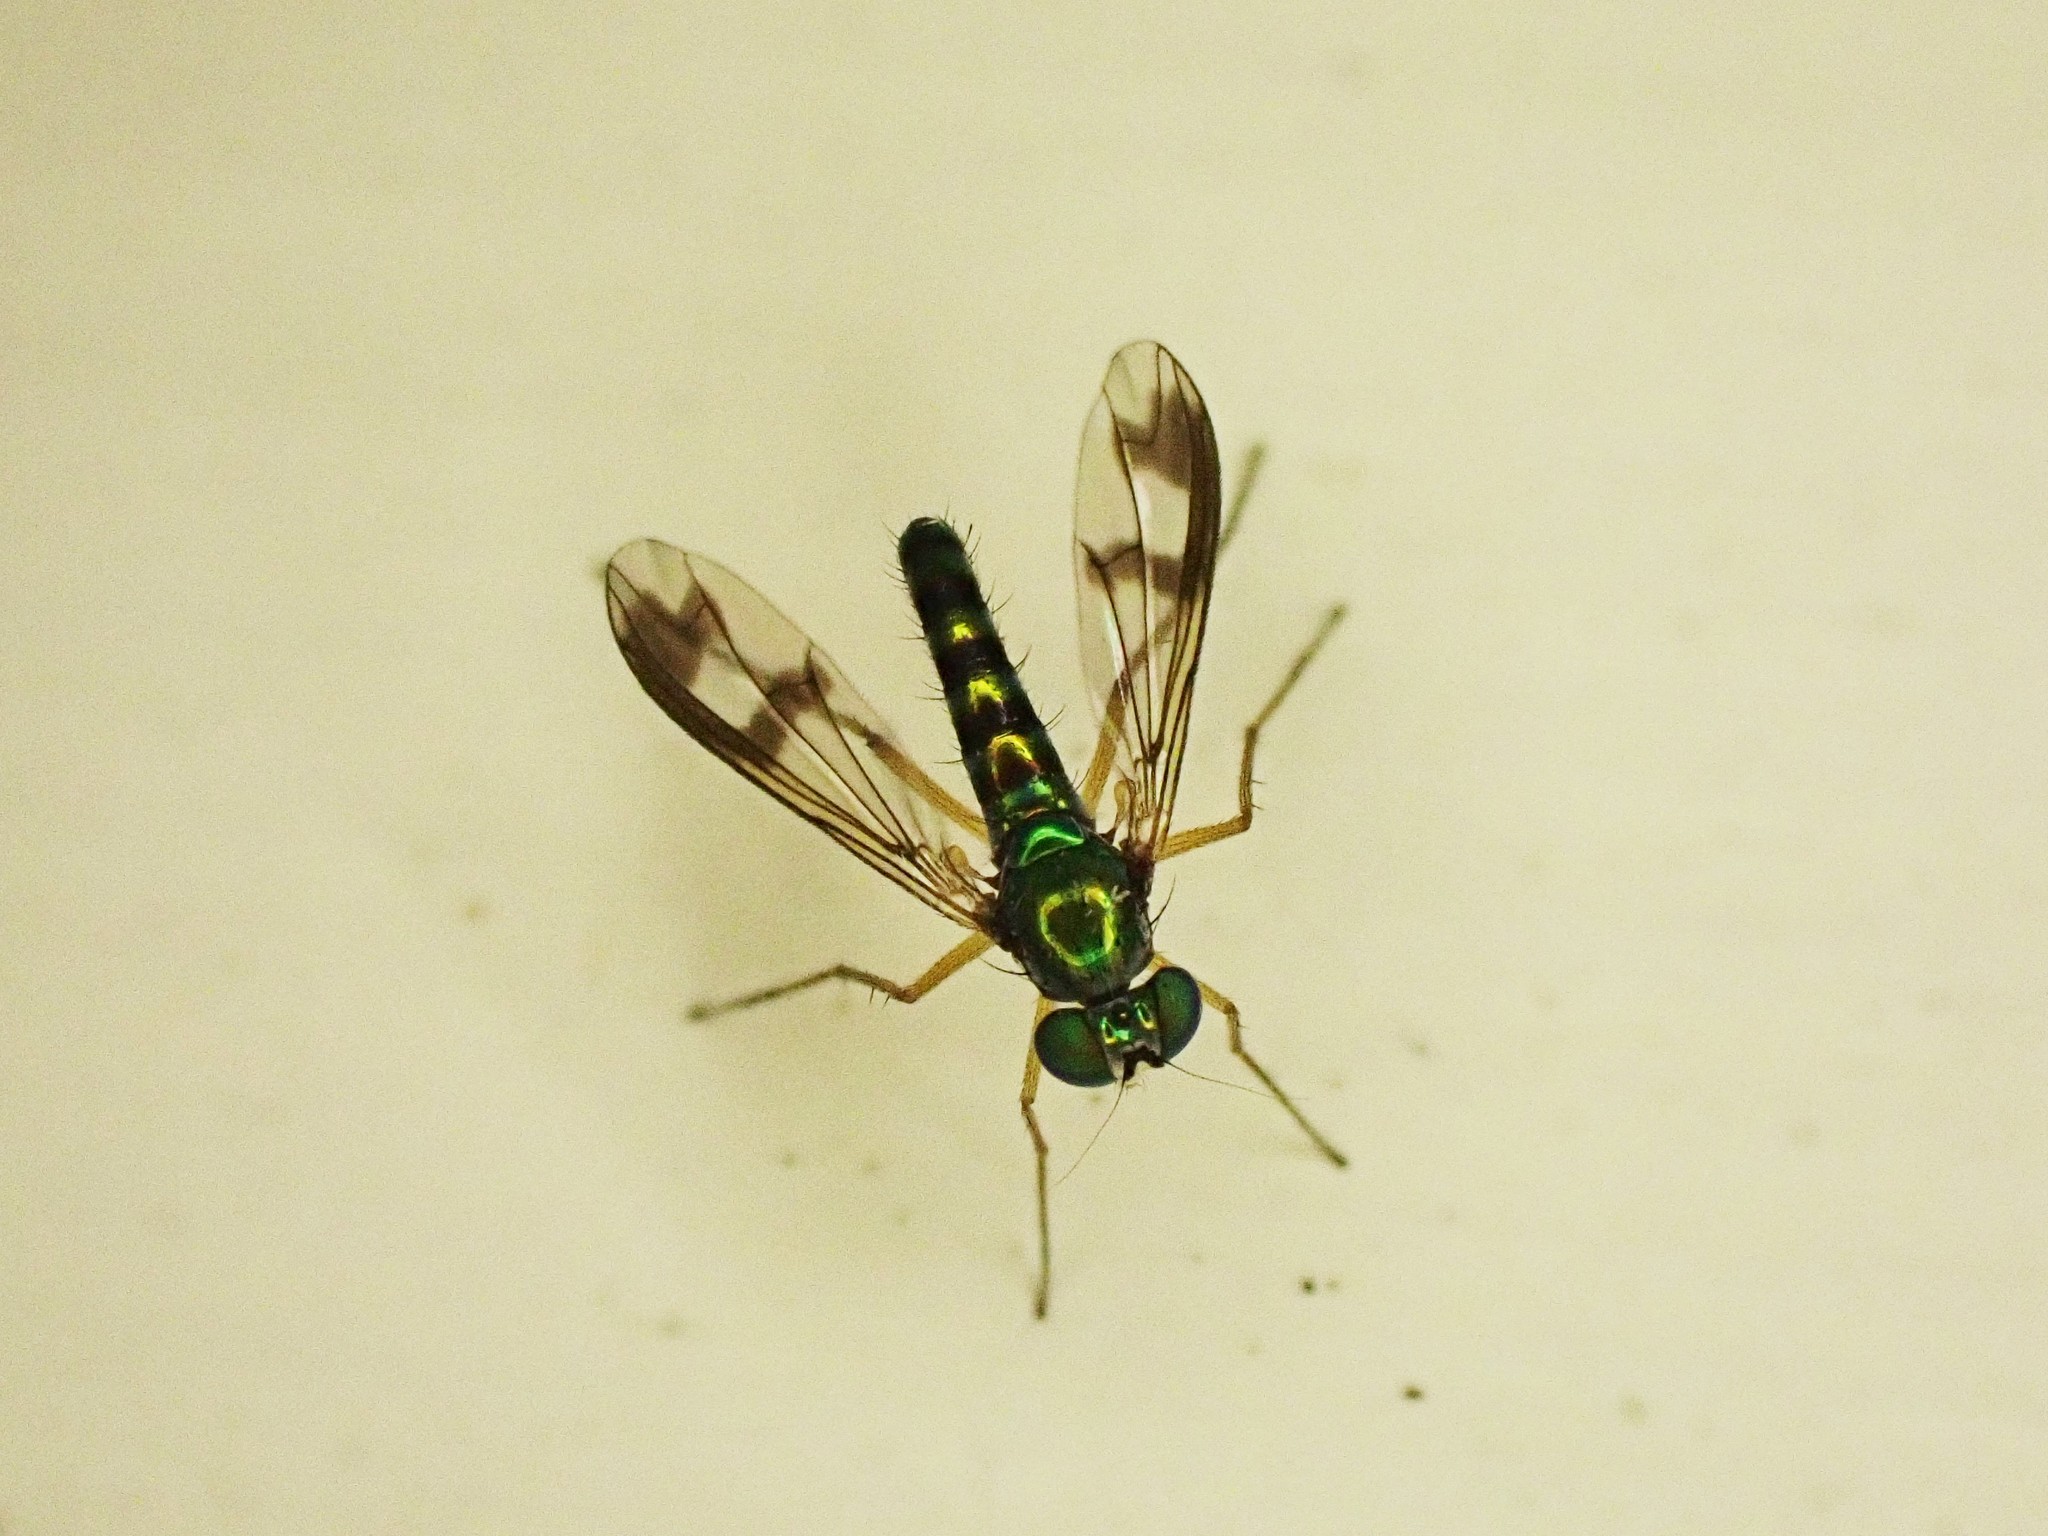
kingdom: Animalia
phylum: Arthropoda
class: Insecta
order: Diptera
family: Dolichopodidae
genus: Austrosciapus
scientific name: Austrosciapus proximus
